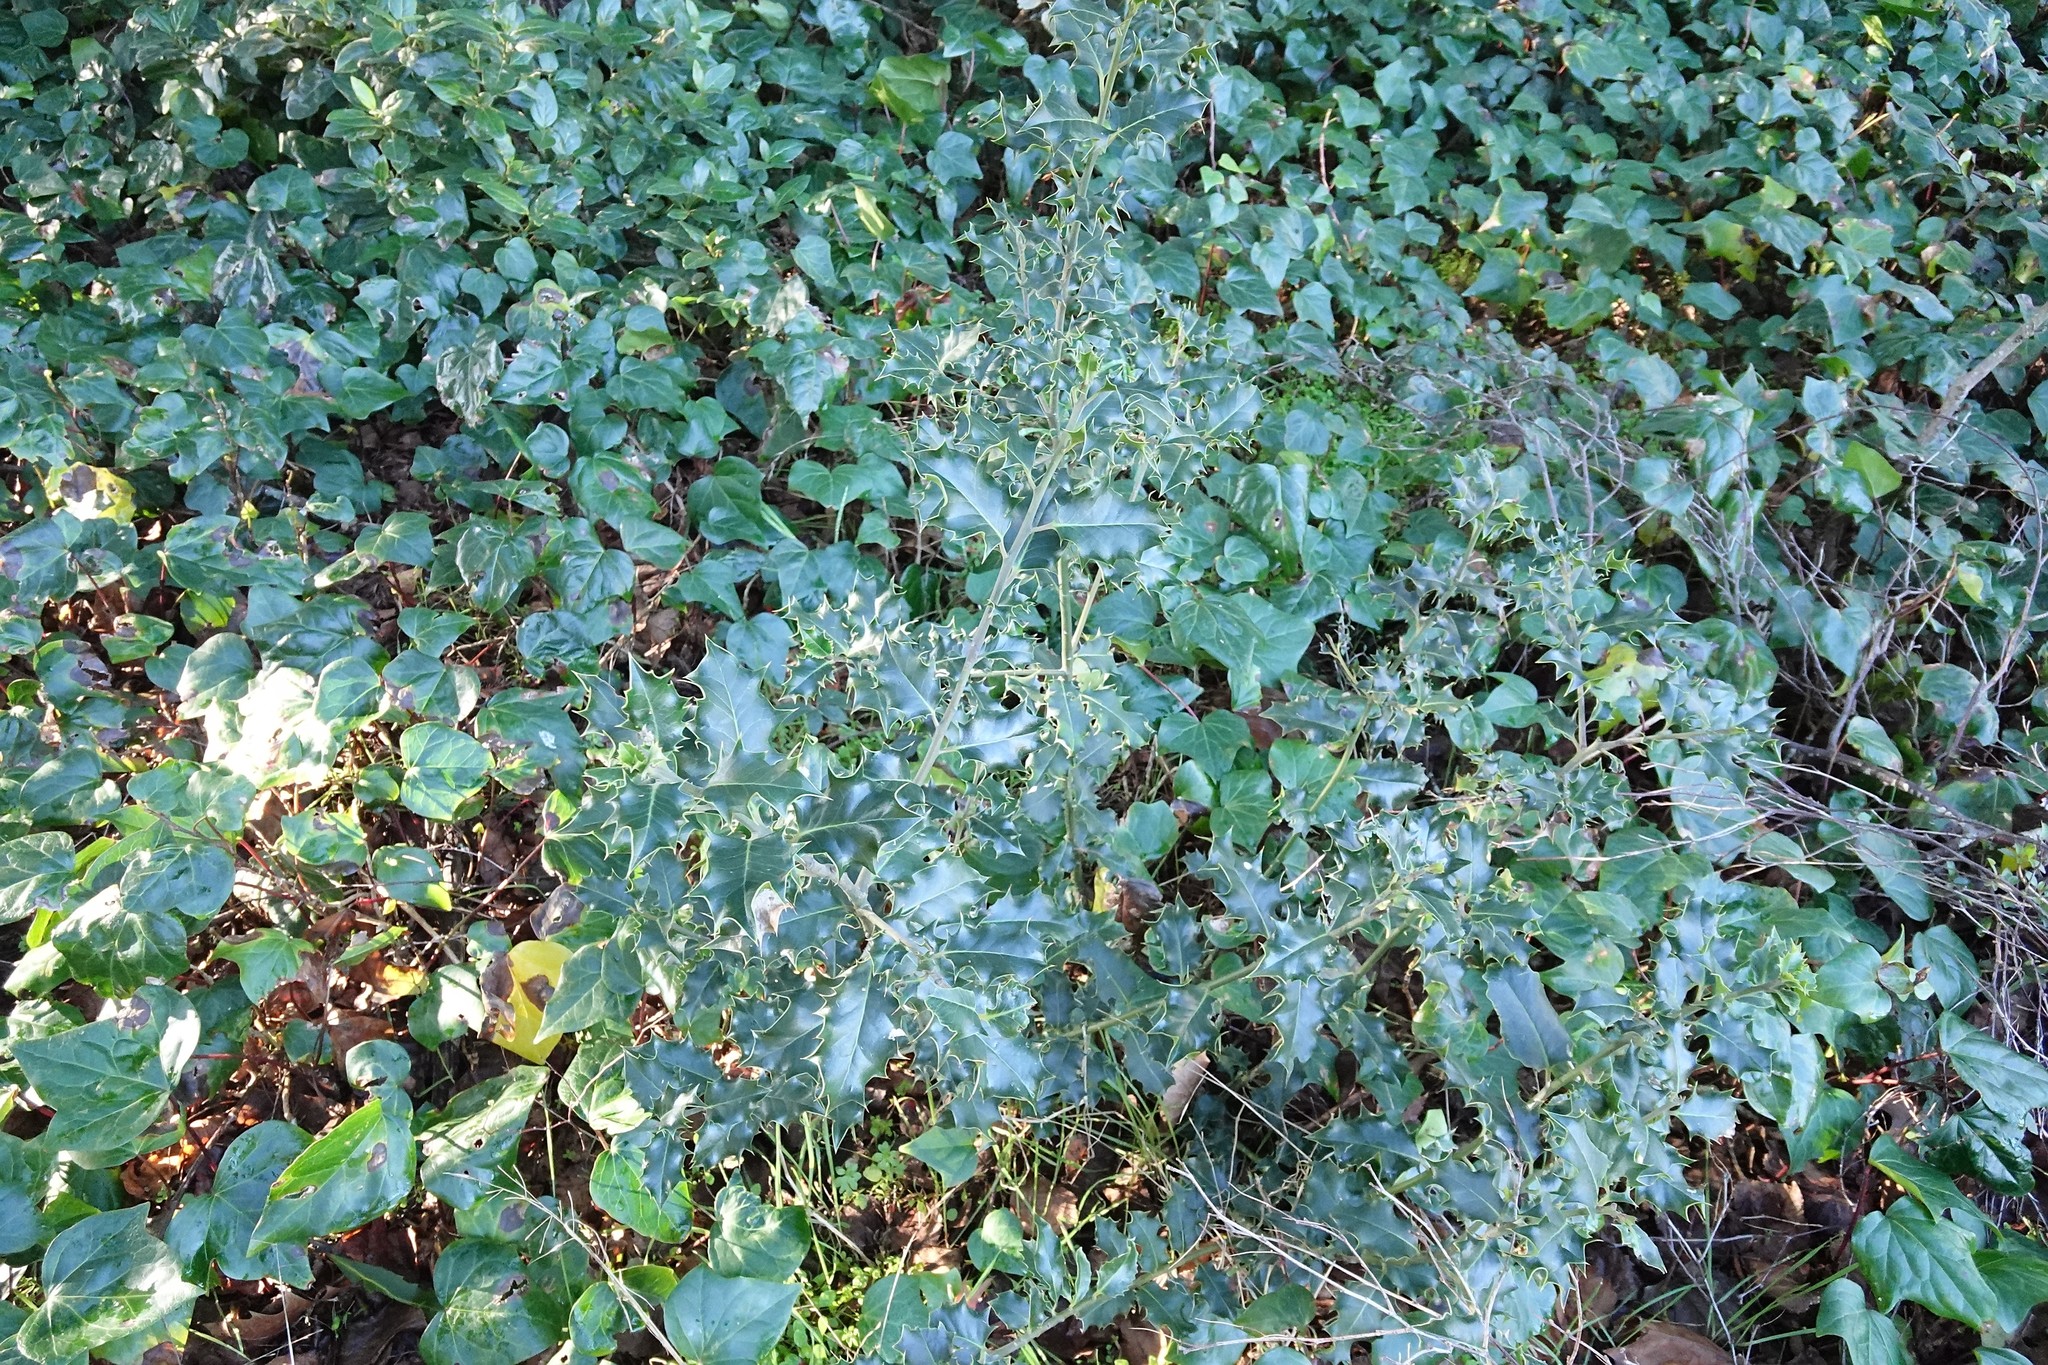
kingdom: Plantae
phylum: Tracheophyta
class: Magnoliopsida
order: Aquifoliales
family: Aquifoliaceae
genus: Ilex
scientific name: Ilex aquifolium
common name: English holly
